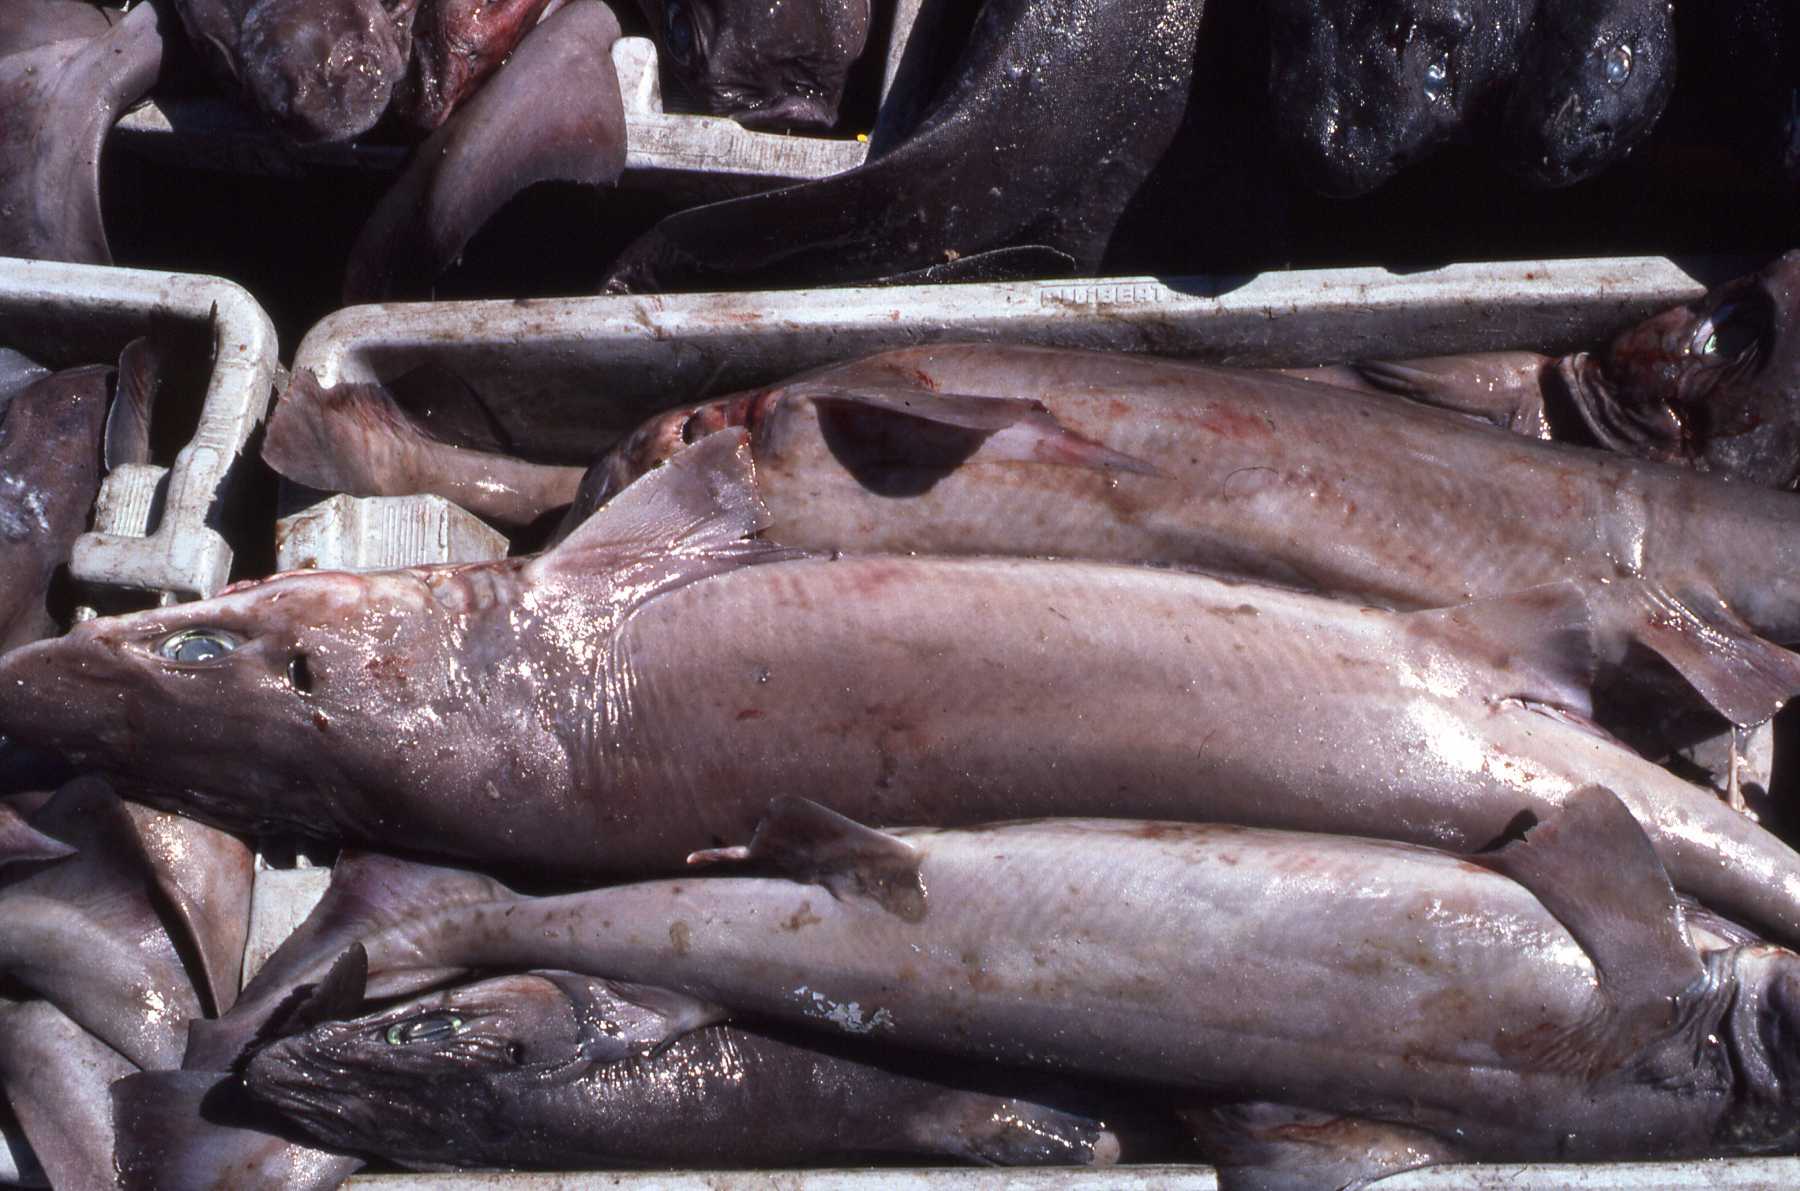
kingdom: Animalia
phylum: Chordata
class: Elasmobranchii
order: Squaliformes
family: Centrophoridae
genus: Centrophorus
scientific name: Centrophorus uyato
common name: Little gulper shark
